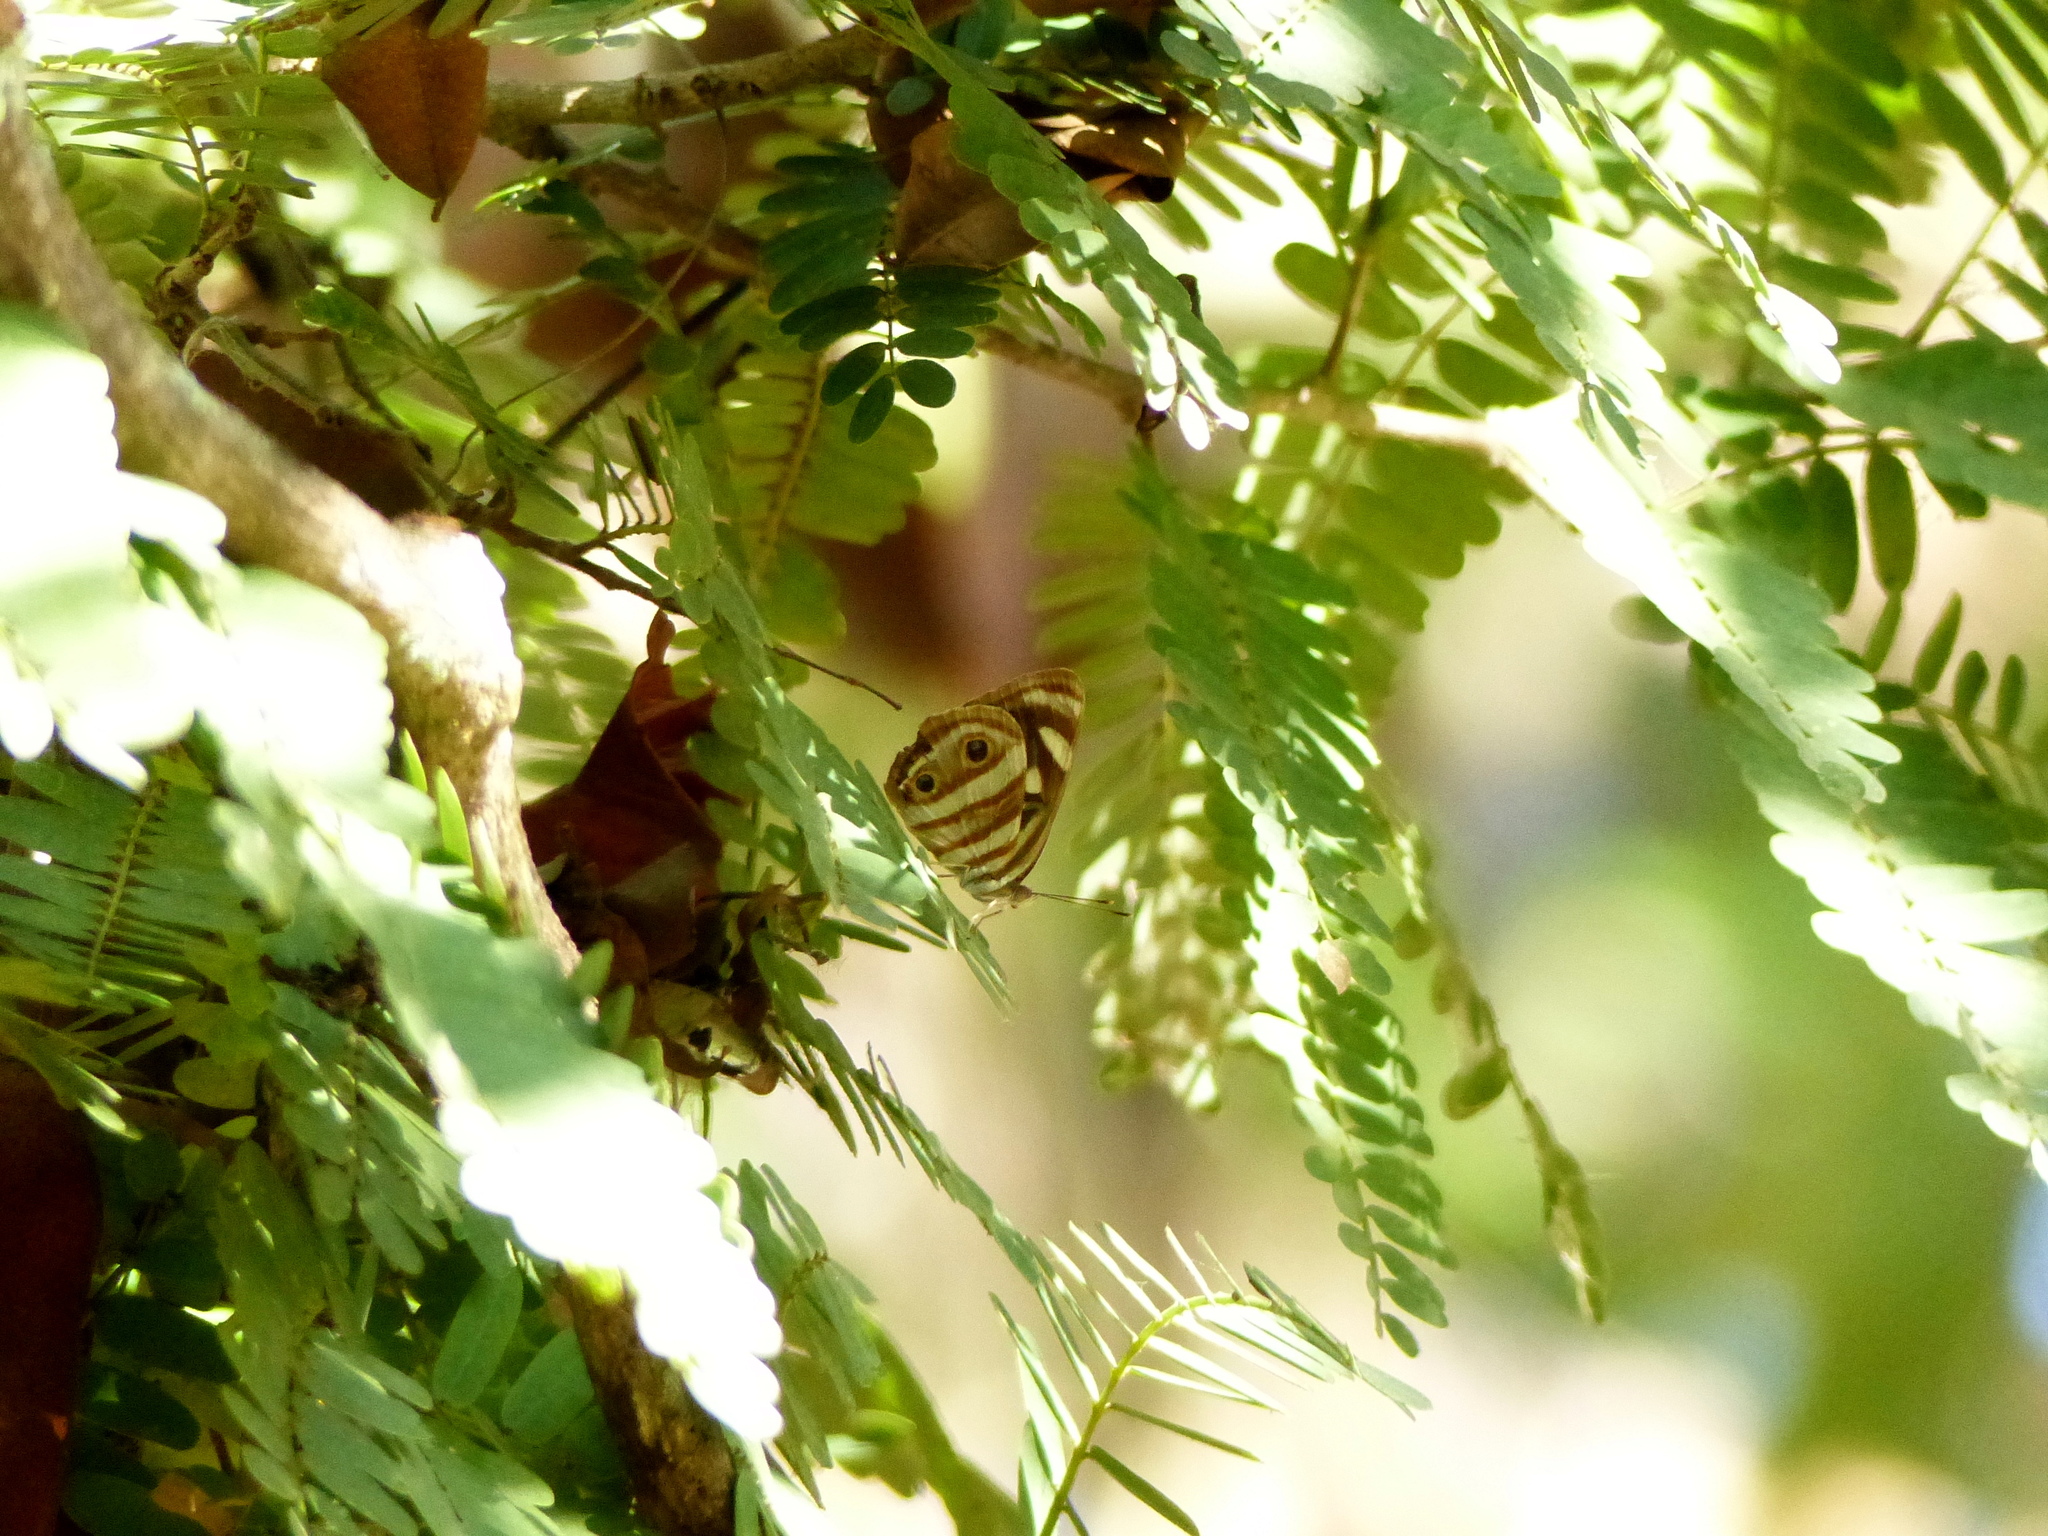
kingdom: Animalia
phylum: Arthropoda
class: Insecta
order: Lepidoptera
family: Nymphalidae
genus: Dynamine
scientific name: Dynamine mylitta
